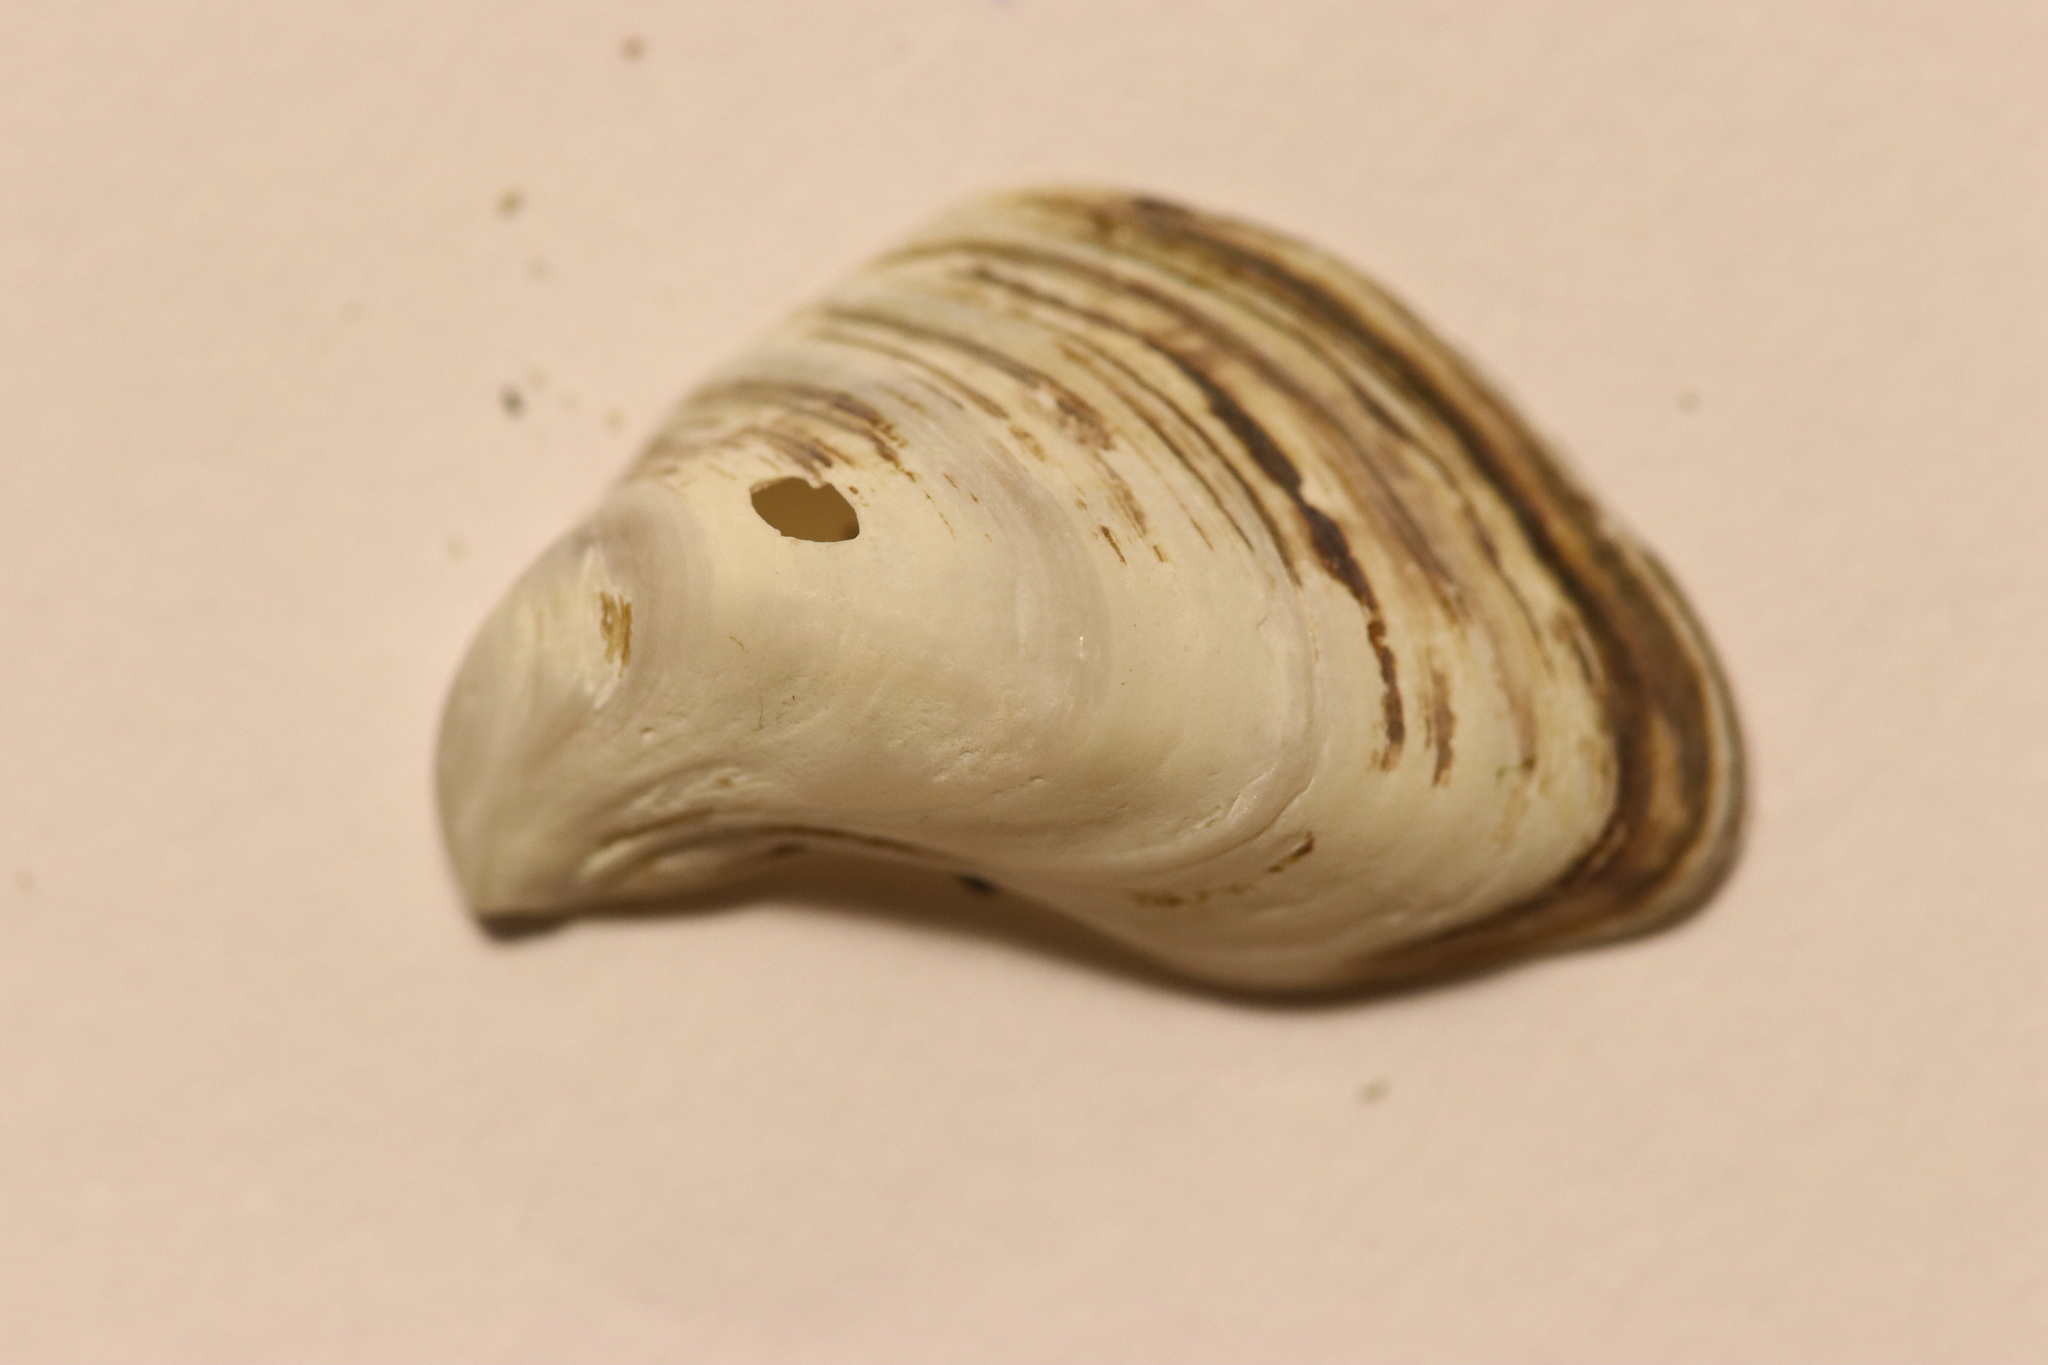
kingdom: Animalia
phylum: Mollusca
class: Bivalvia
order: Myida
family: Dreissenidae
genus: Dreissena
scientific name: Dreissena bugensis
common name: Quagga mussel
